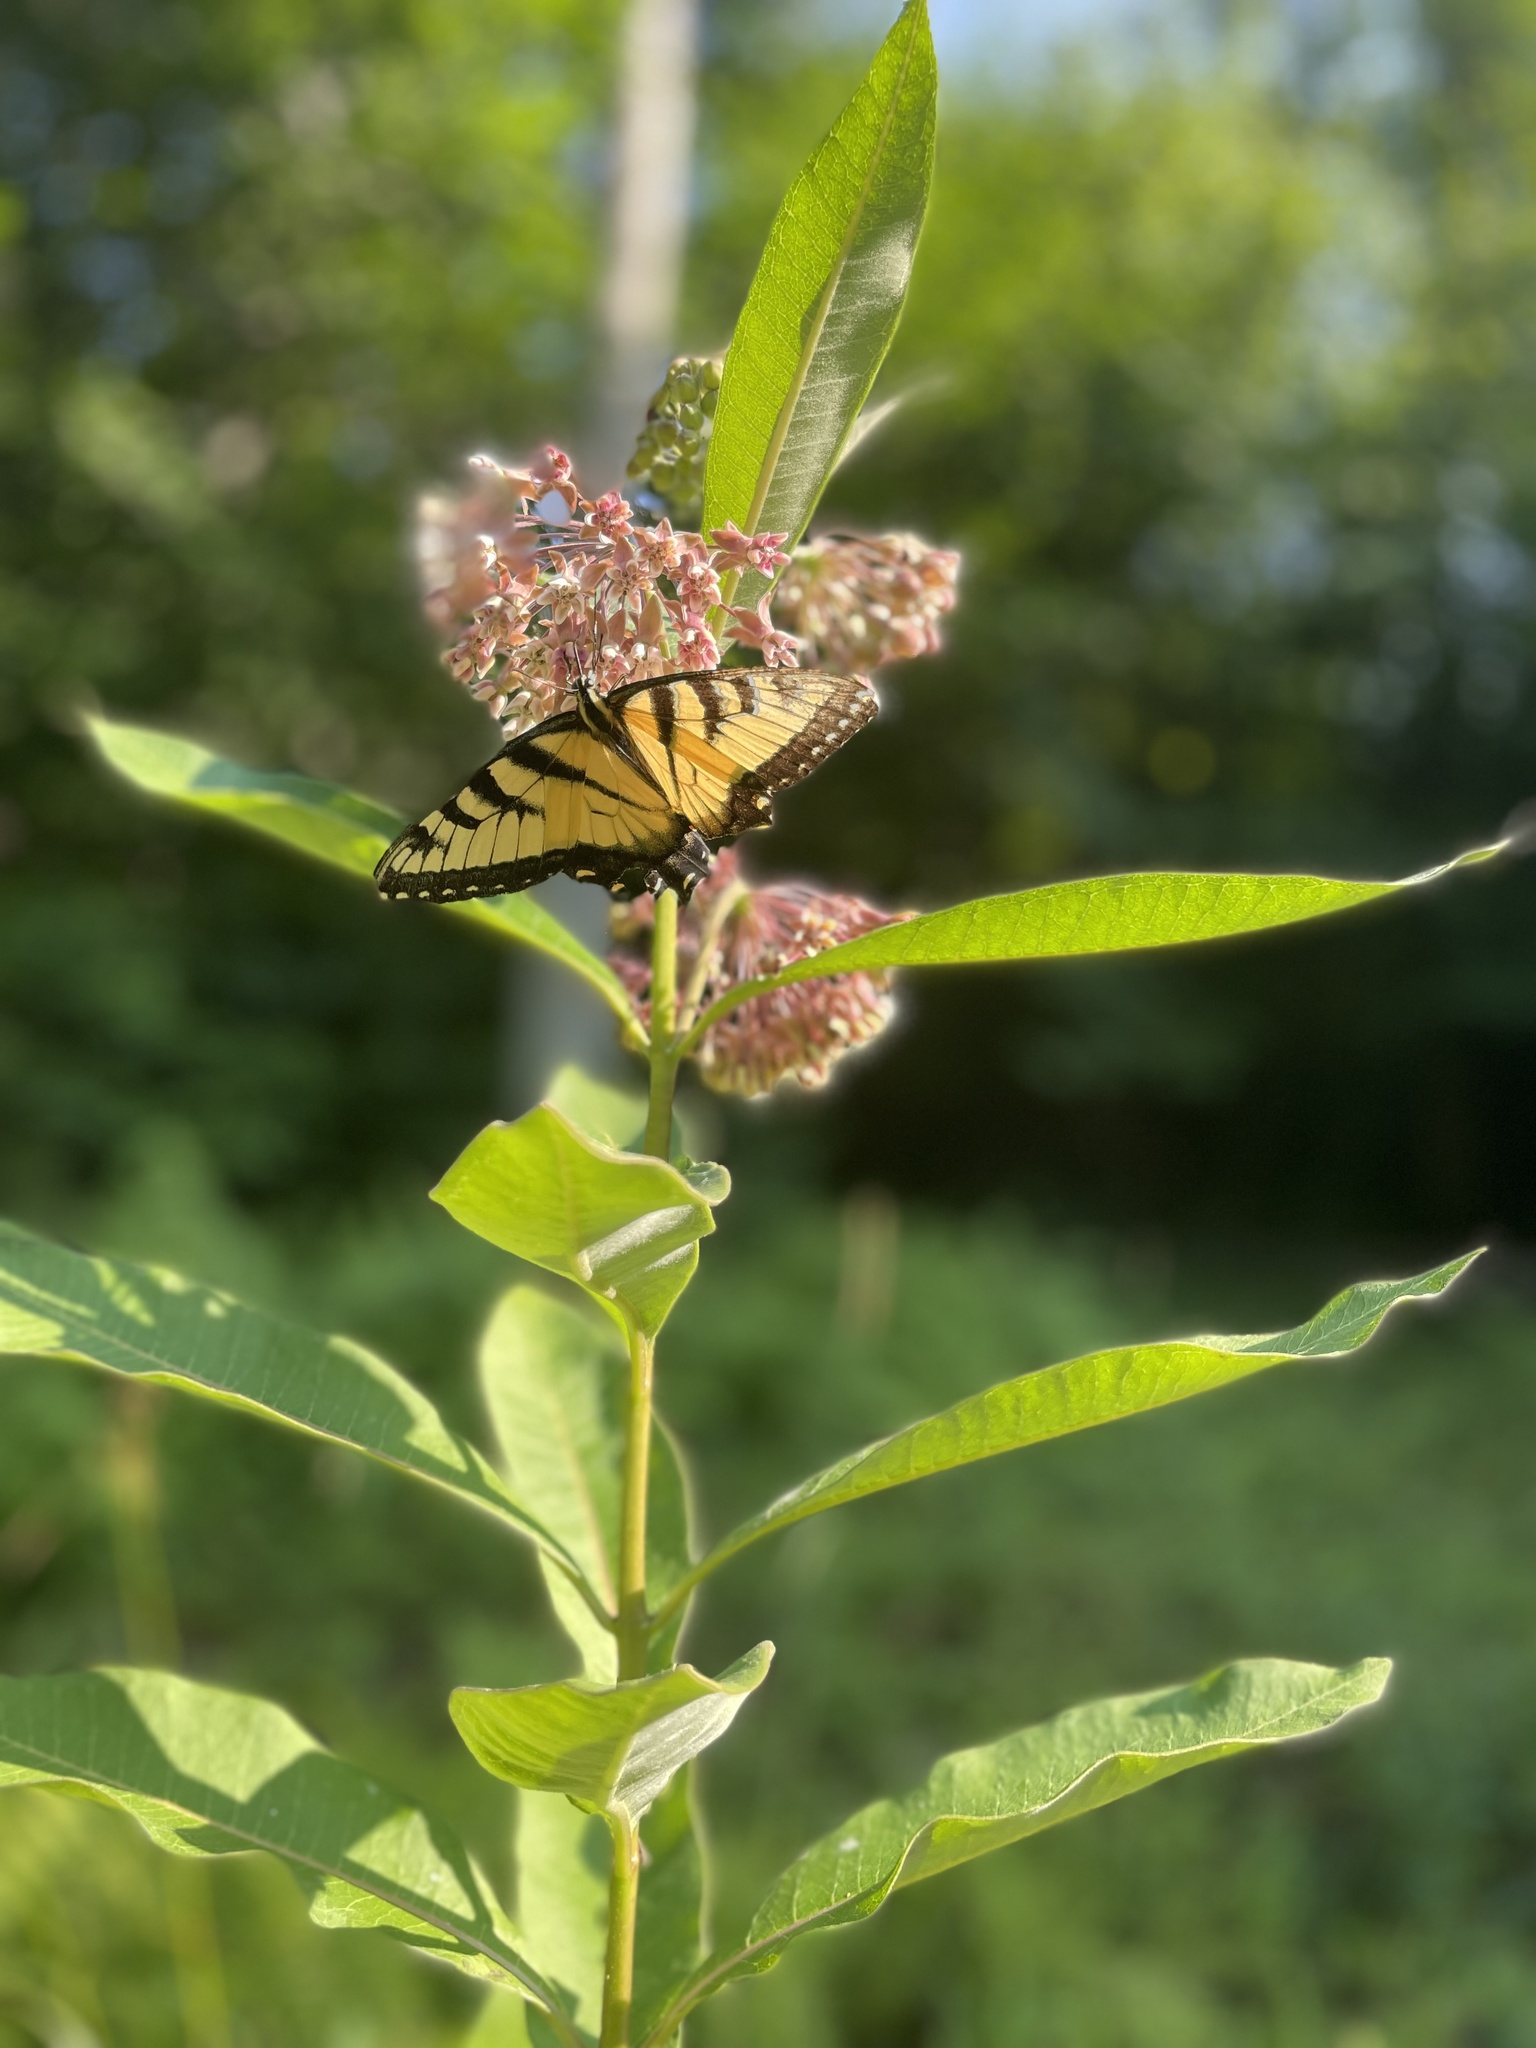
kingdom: Animalia
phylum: Arthropoda
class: Insecta
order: Lepidoptera
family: Papilionidae
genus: Papilio
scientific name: Papilio glaucus
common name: Tiger swallowtail
